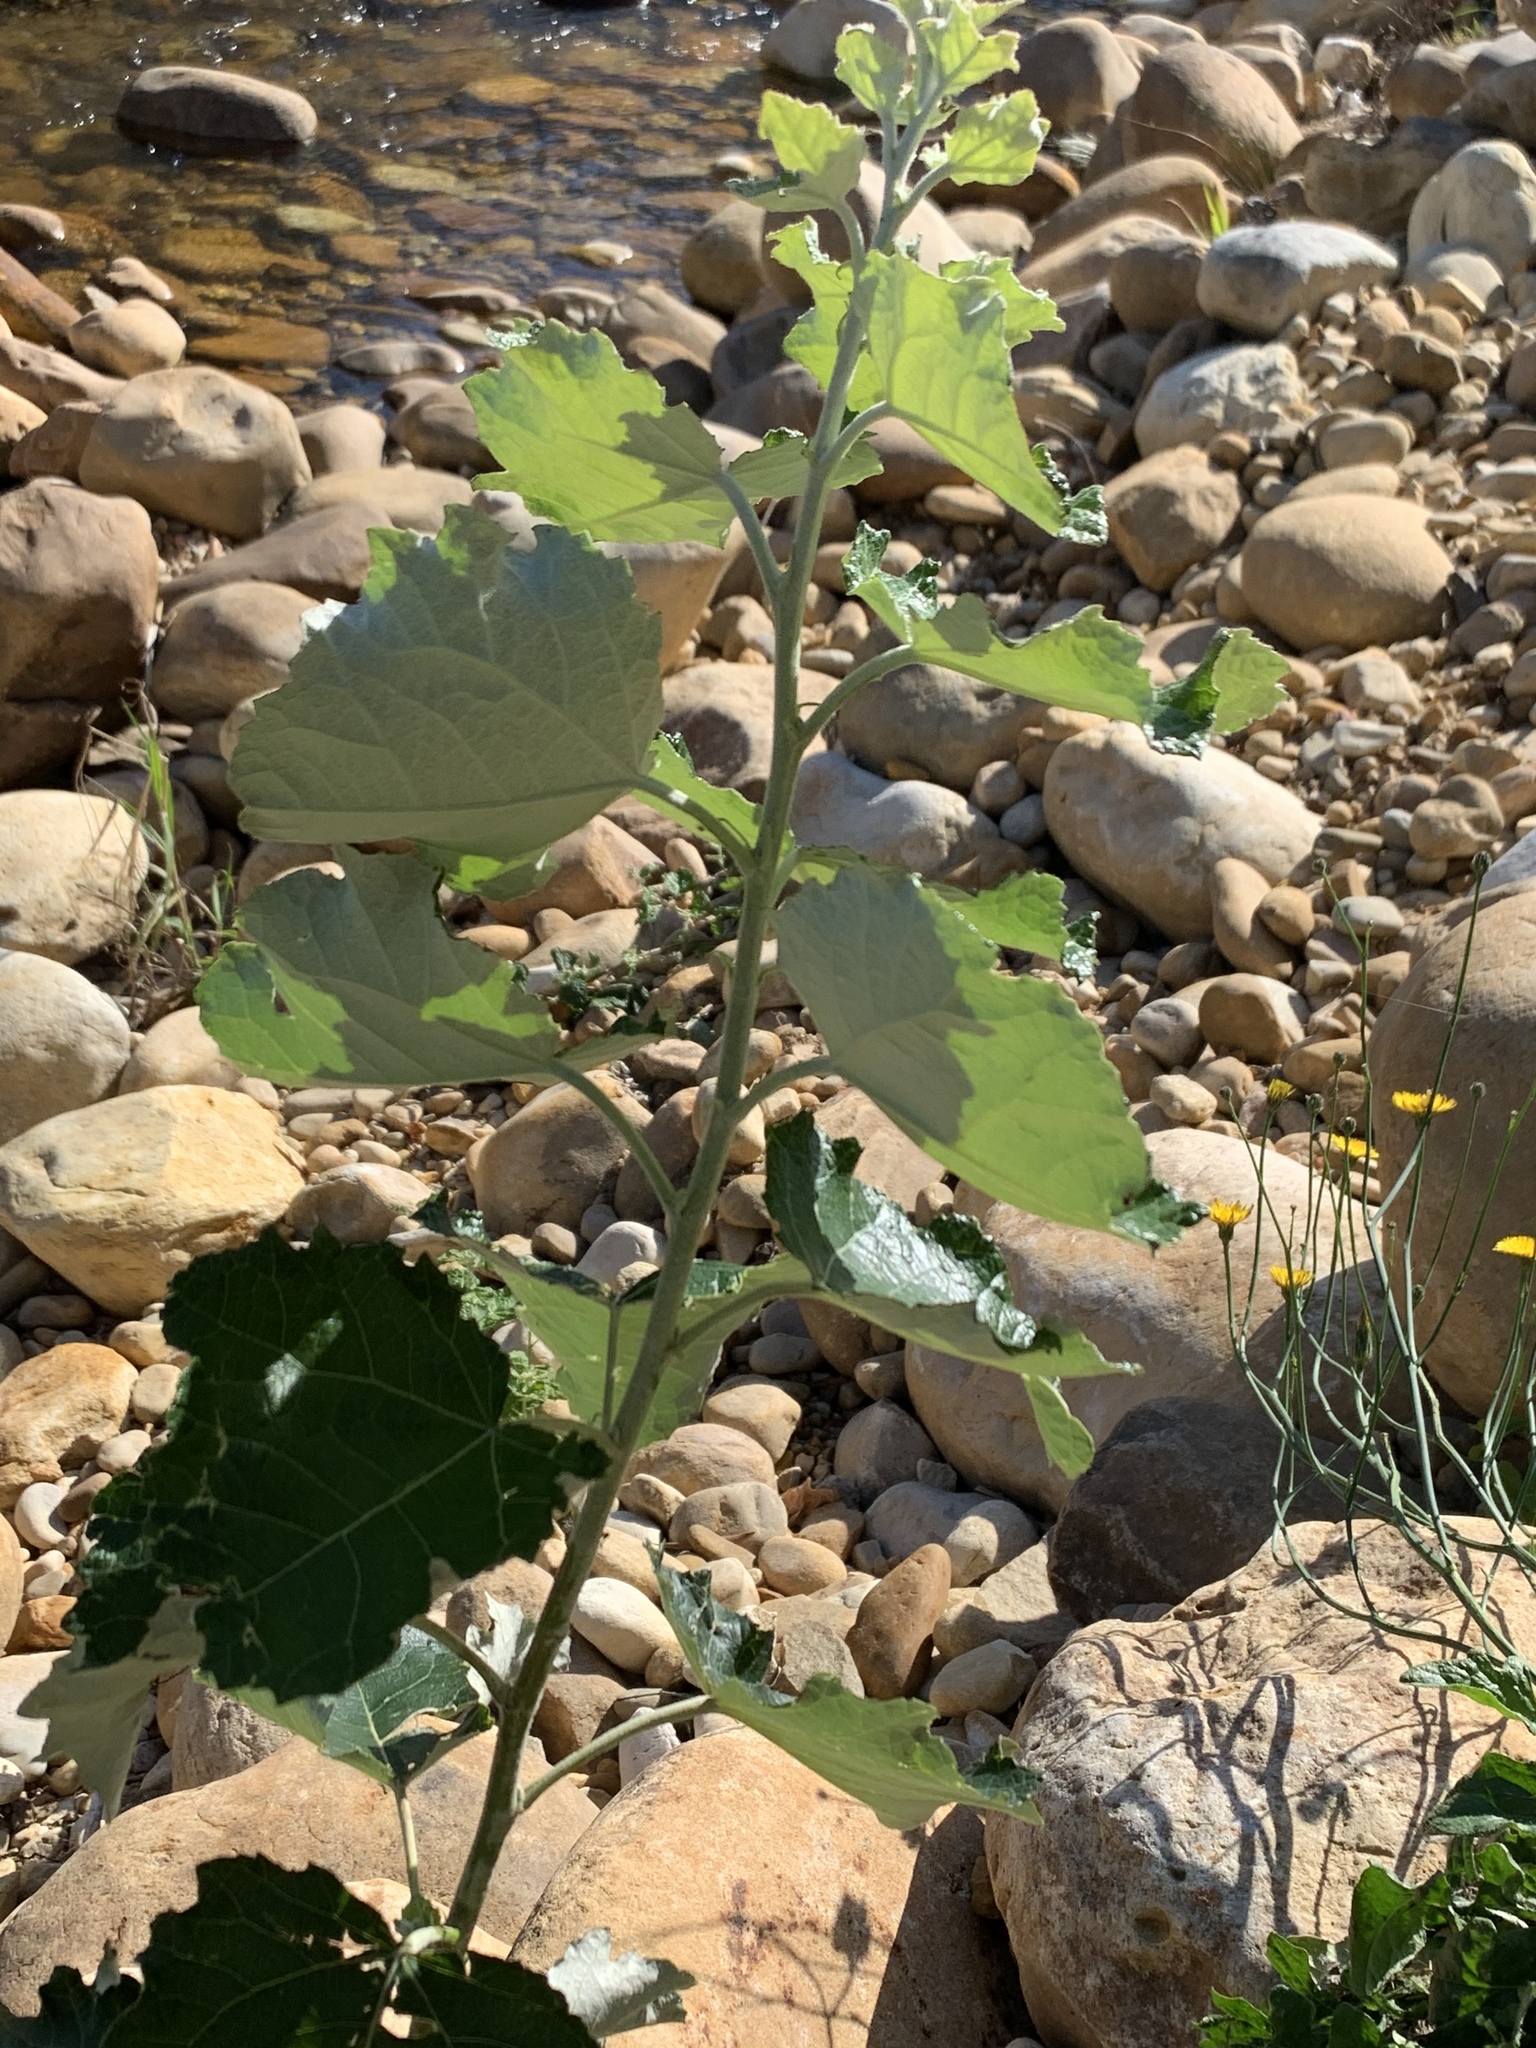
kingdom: Plantae
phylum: Tracheophyta
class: Magnoliopsida
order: Malpighiales
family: Salicaceae
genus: Populus
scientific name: Populus canescens
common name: Gray poplar
